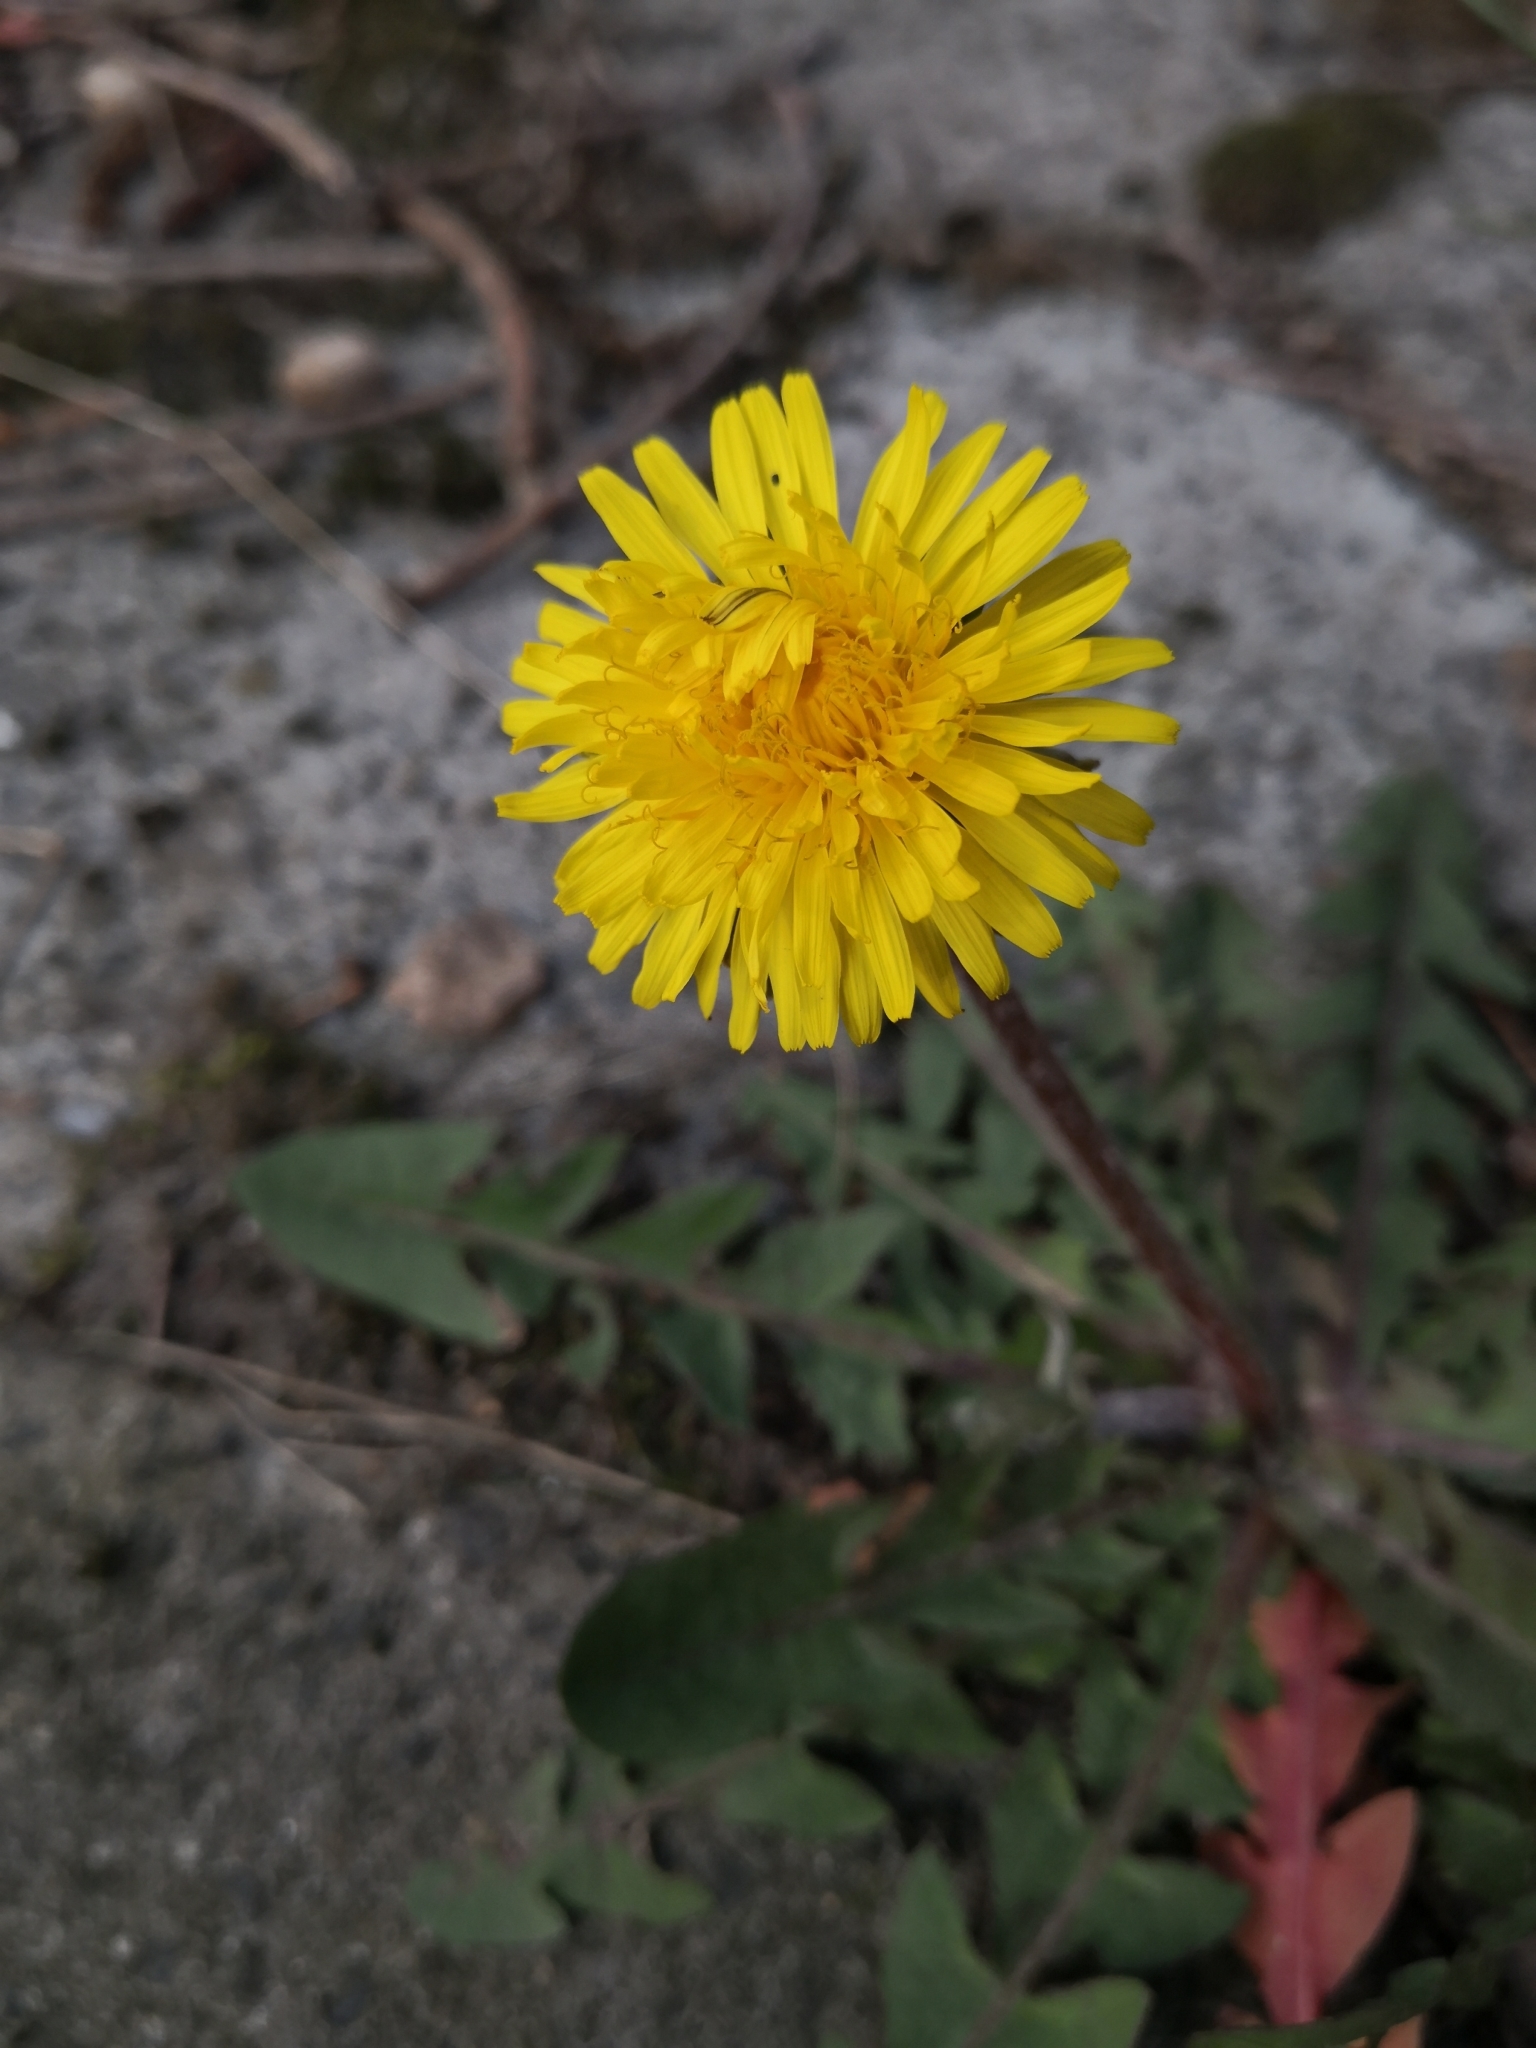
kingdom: Plantae
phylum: Tracheophyta
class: Magnoliopsida
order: Asterales
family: Asteraceae
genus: Taraxacum
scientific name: Taraxacum officinale
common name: Common dandelion
